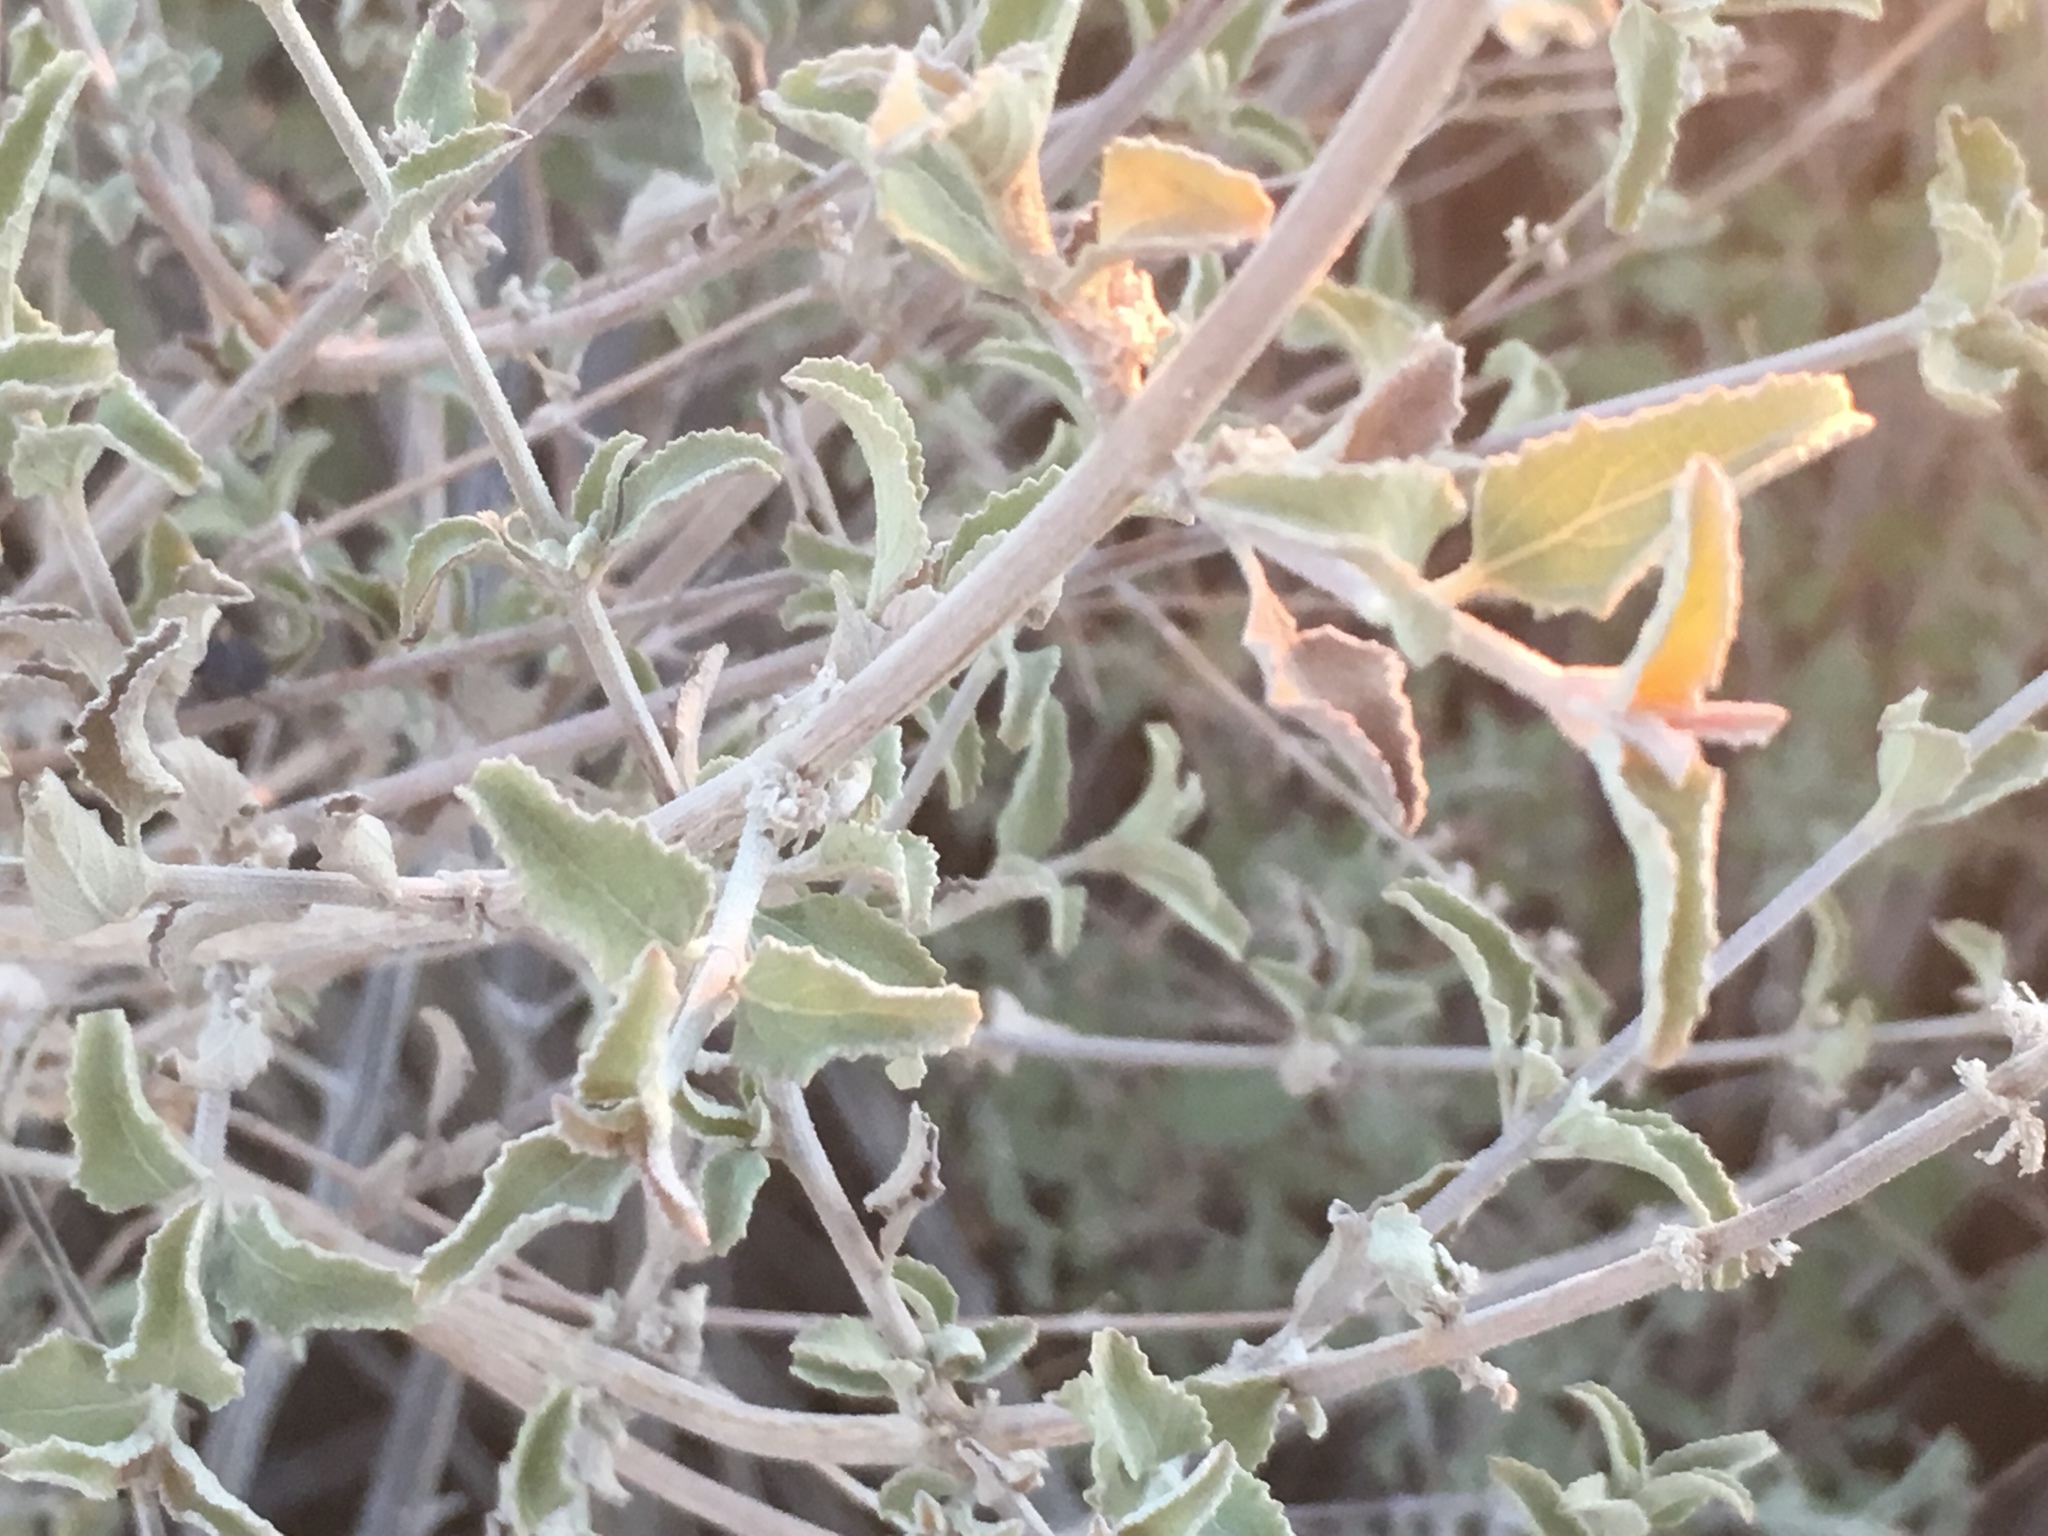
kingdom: Plantae
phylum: Tracheophyta
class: Magnoliopsida
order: Lamiales
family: Lamiaceae
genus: Condea
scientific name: Condea emoryi
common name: Chia
